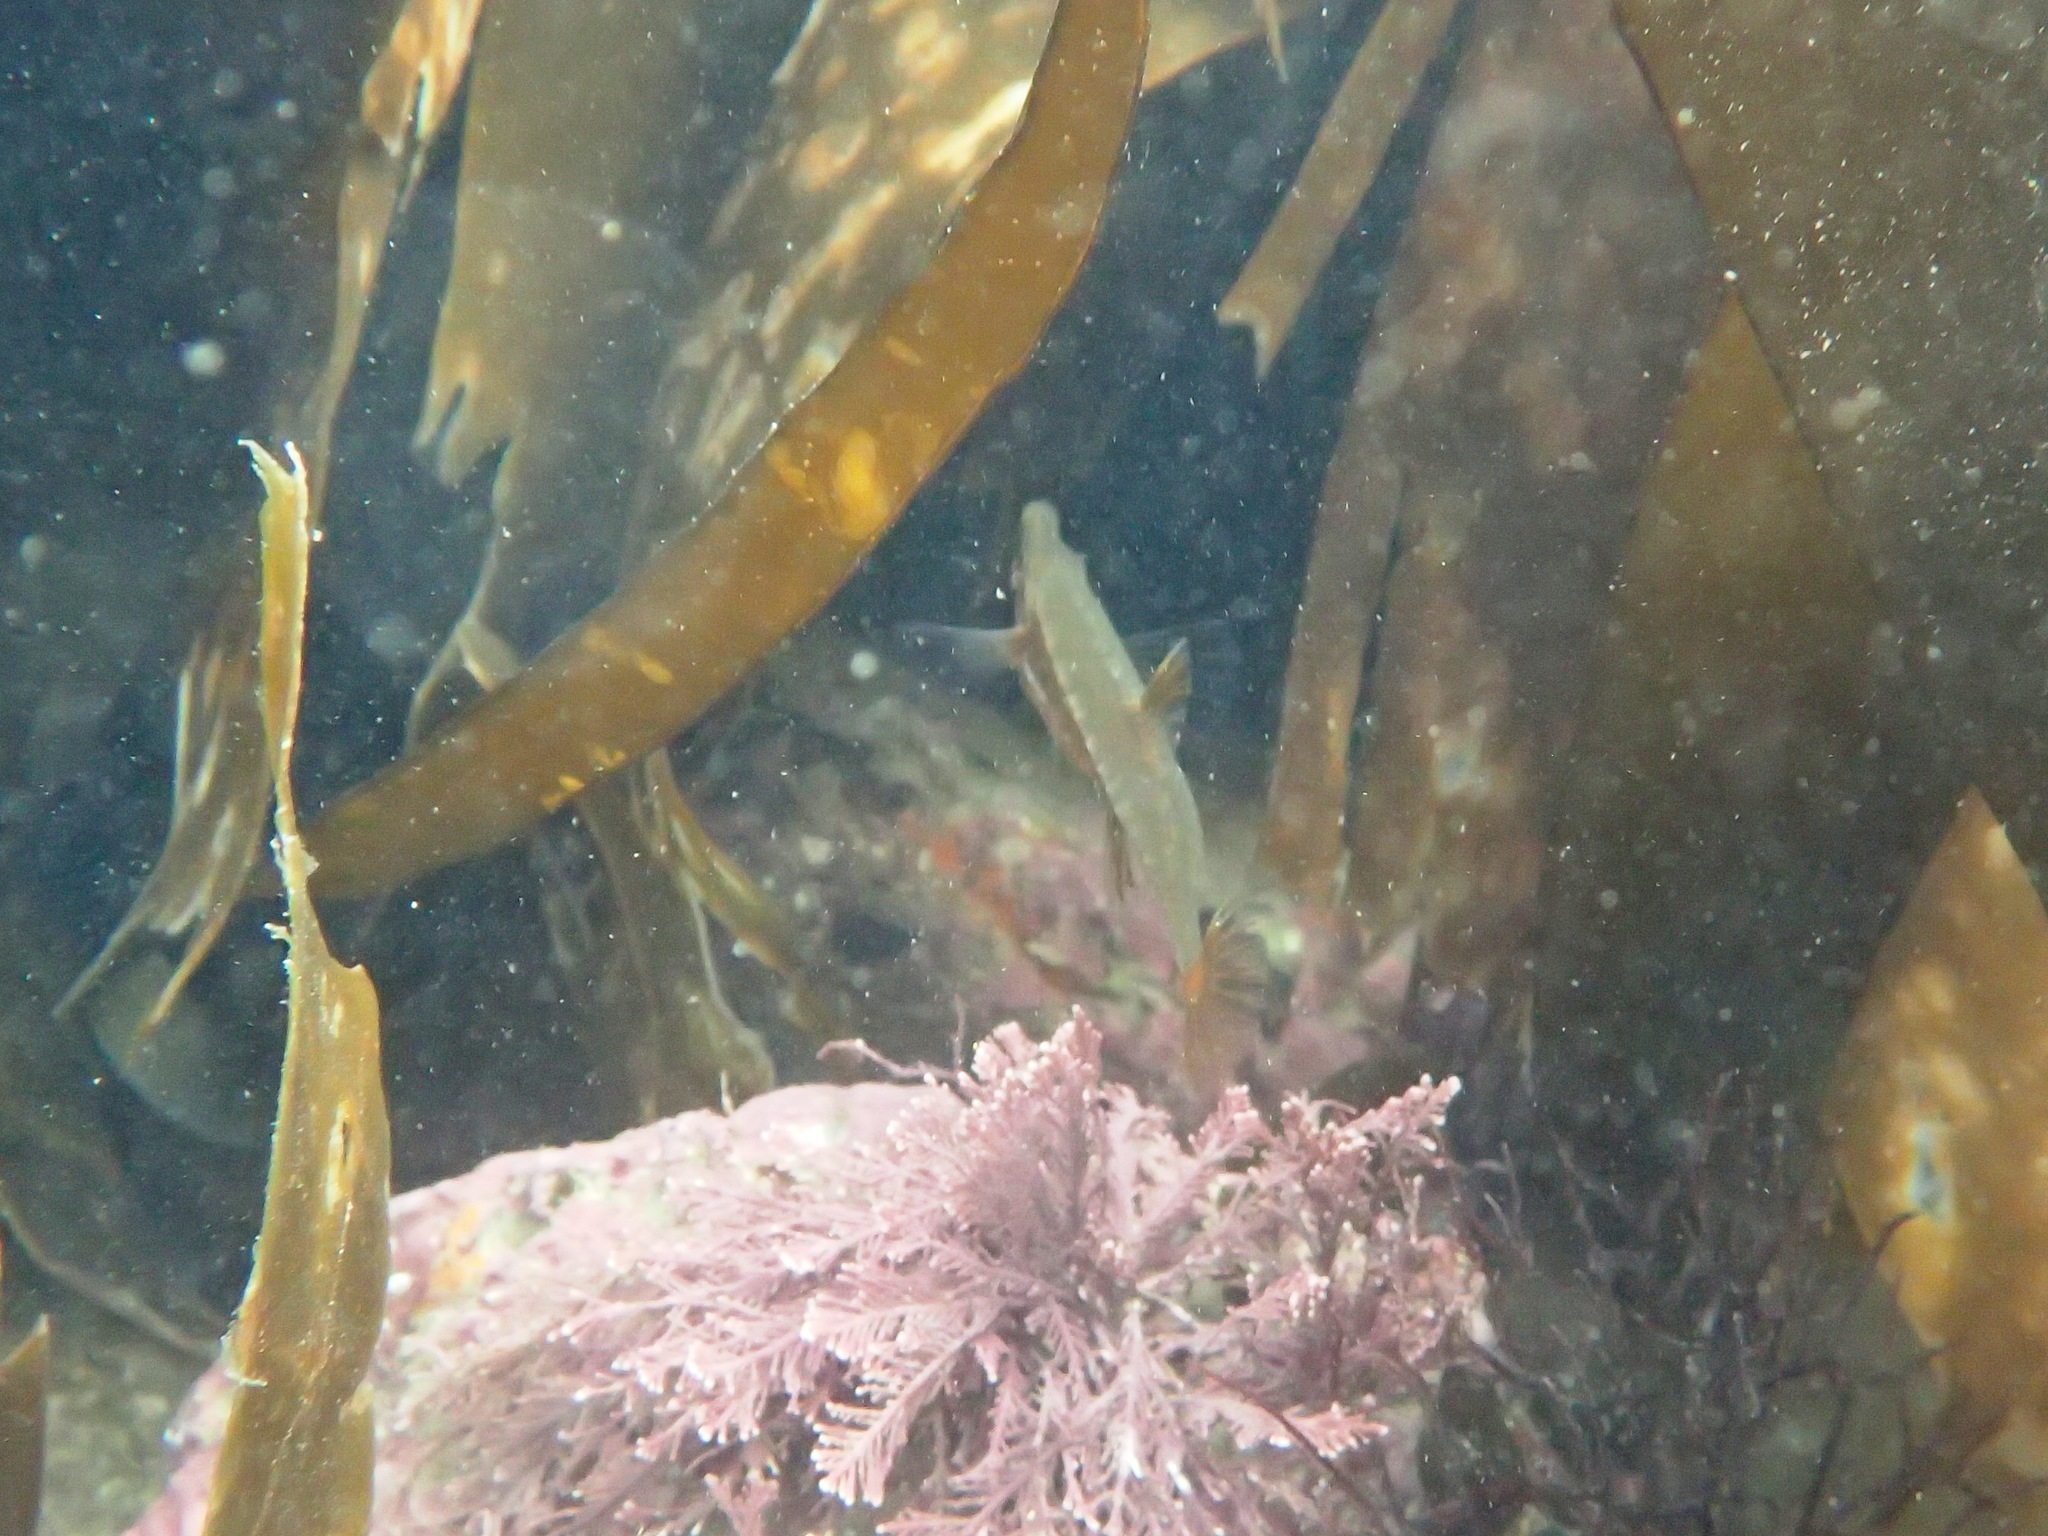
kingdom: Animalia
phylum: Chordata
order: Gasterosteiformes
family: Gasterosteidae
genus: Spinachia
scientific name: Spinachia spinachia
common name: Fifteen-spined stickleback
